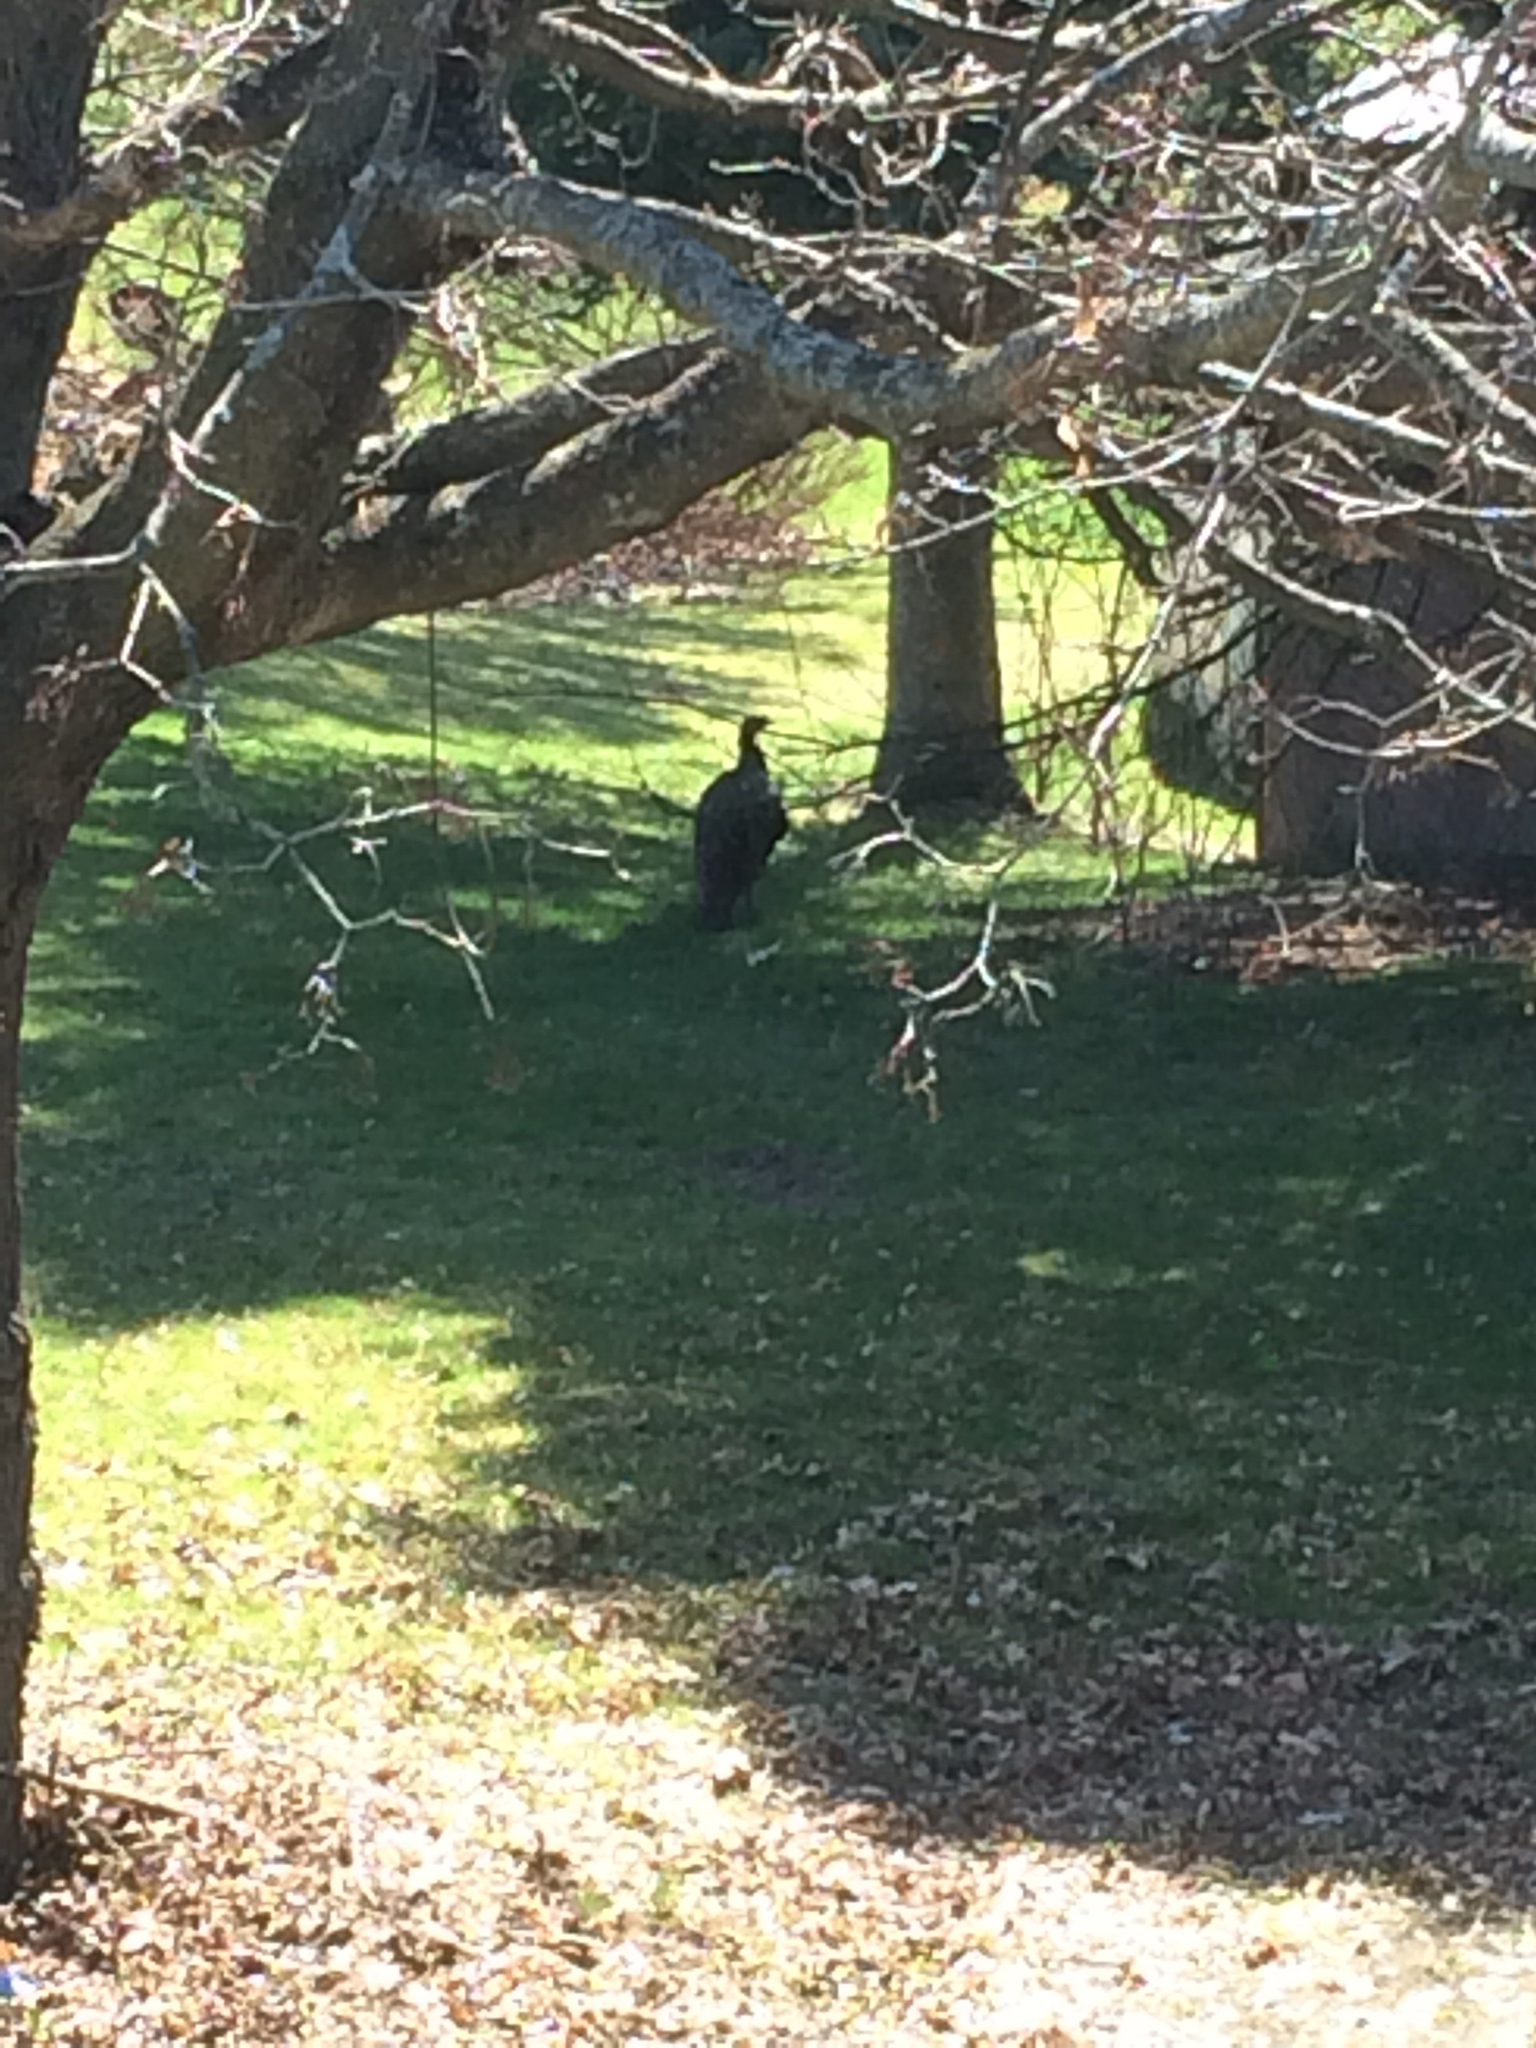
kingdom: Animalia
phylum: Chordata
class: Aves
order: Galliformes
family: Phasianidae
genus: Meleagris
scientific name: Meleagris gallopavo
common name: Wild turkey
